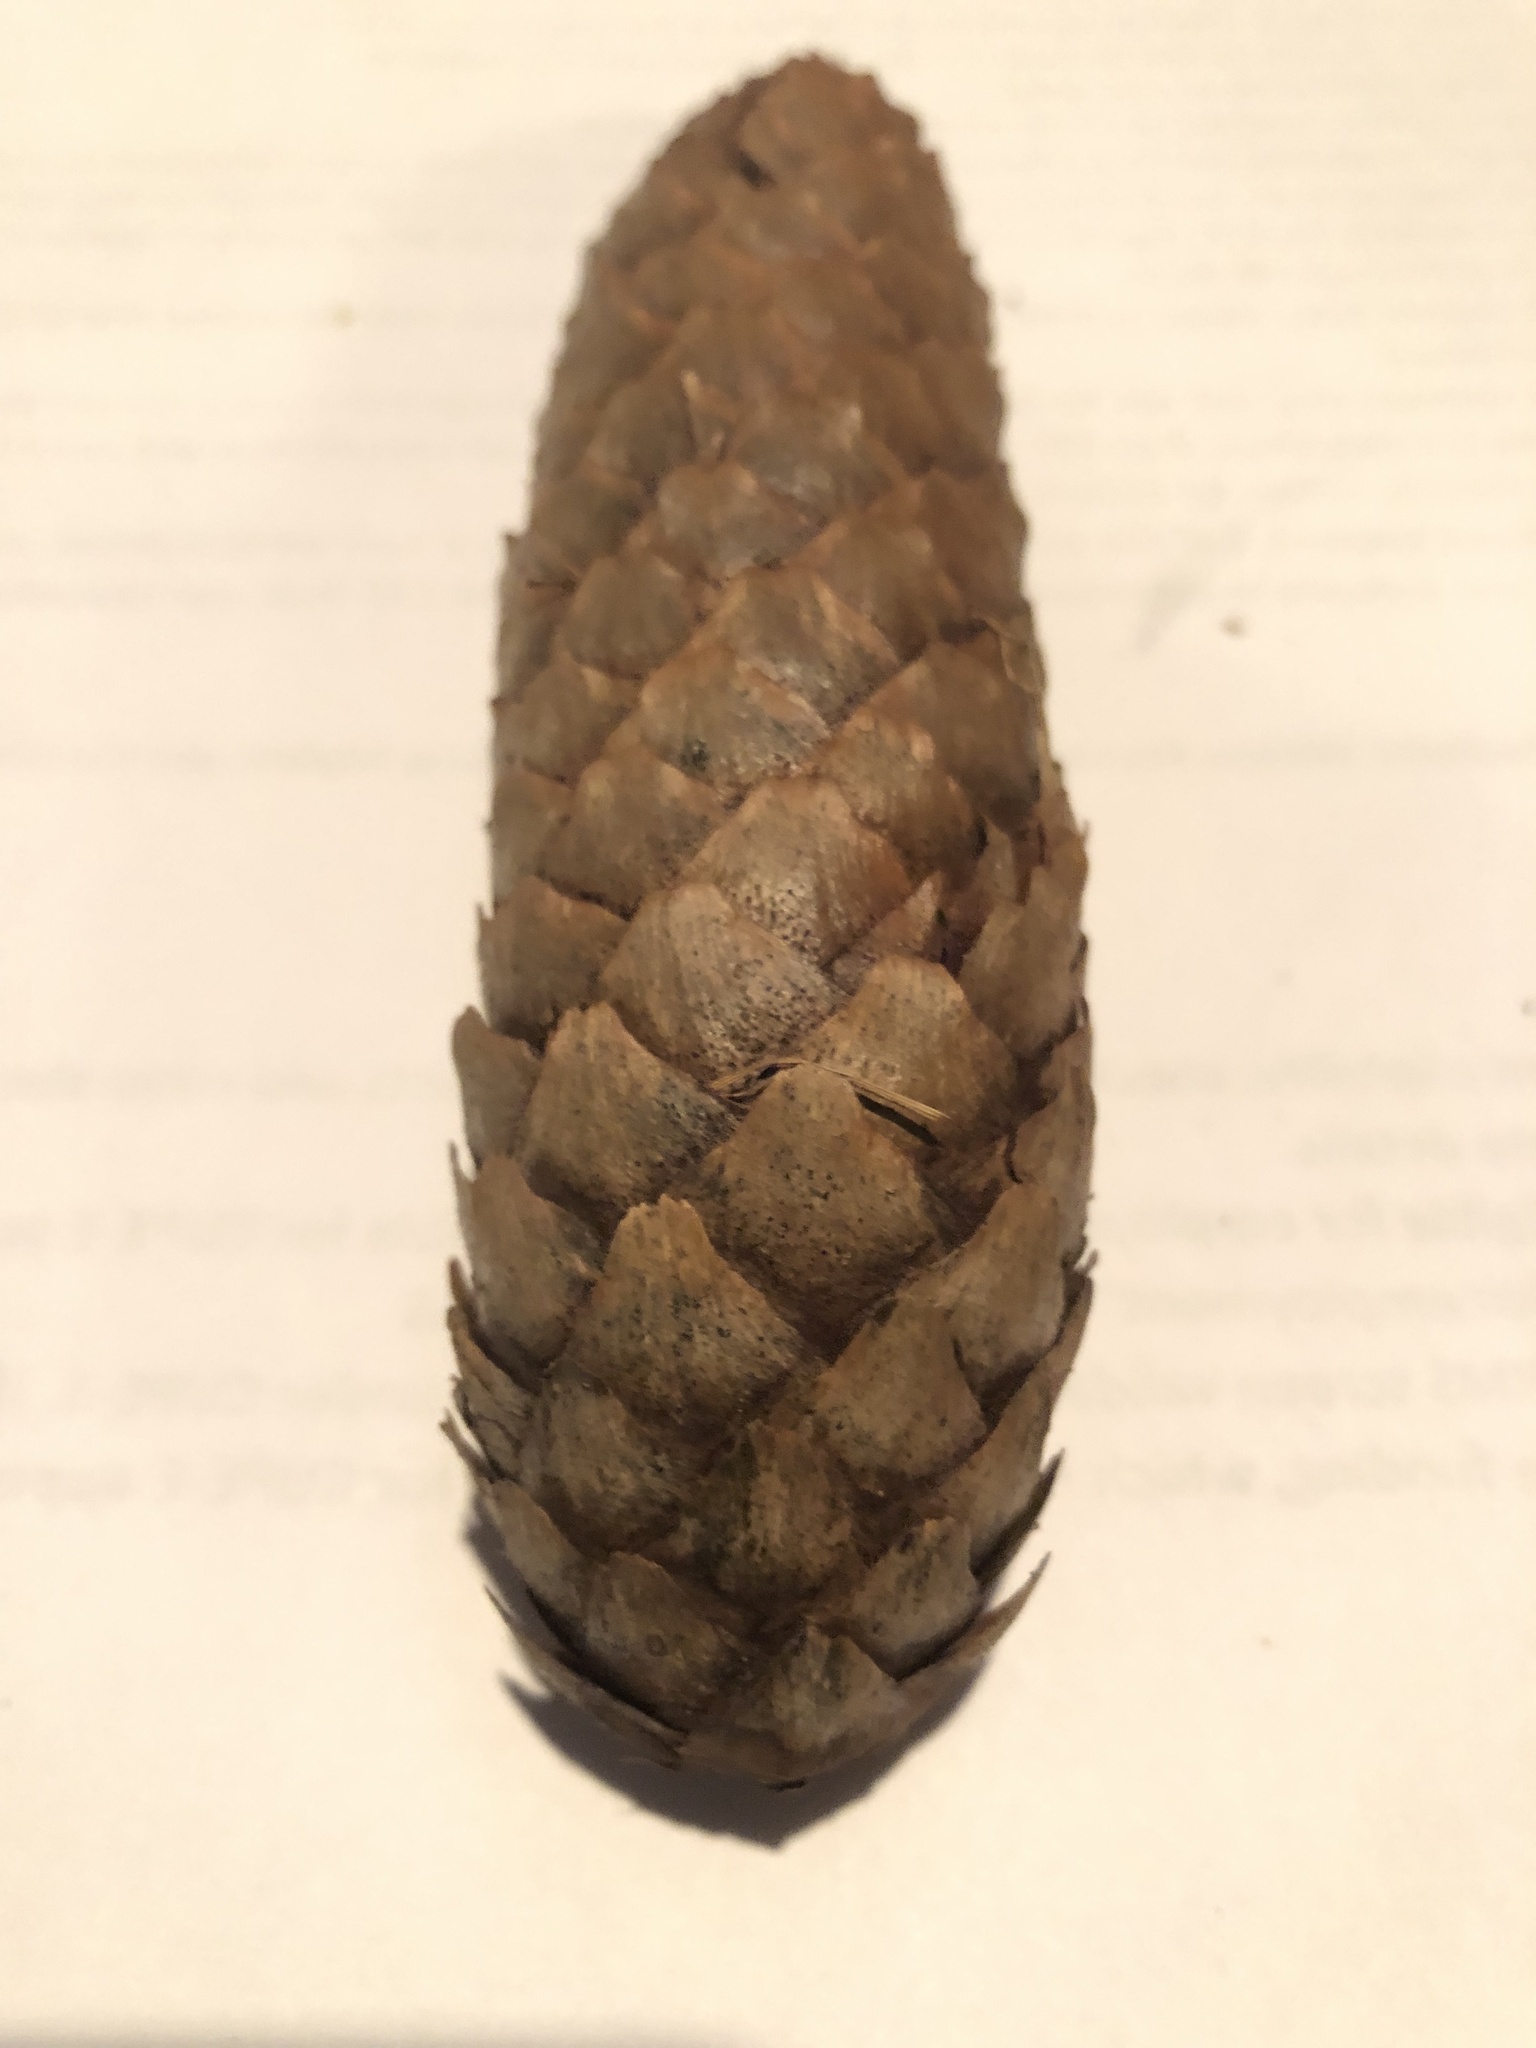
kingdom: Plantae
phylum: Tracheophyta
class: Pinopsida
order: Pinales
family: Pinaceae
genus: Picea
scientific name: Picea abies
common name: Norway spruce
